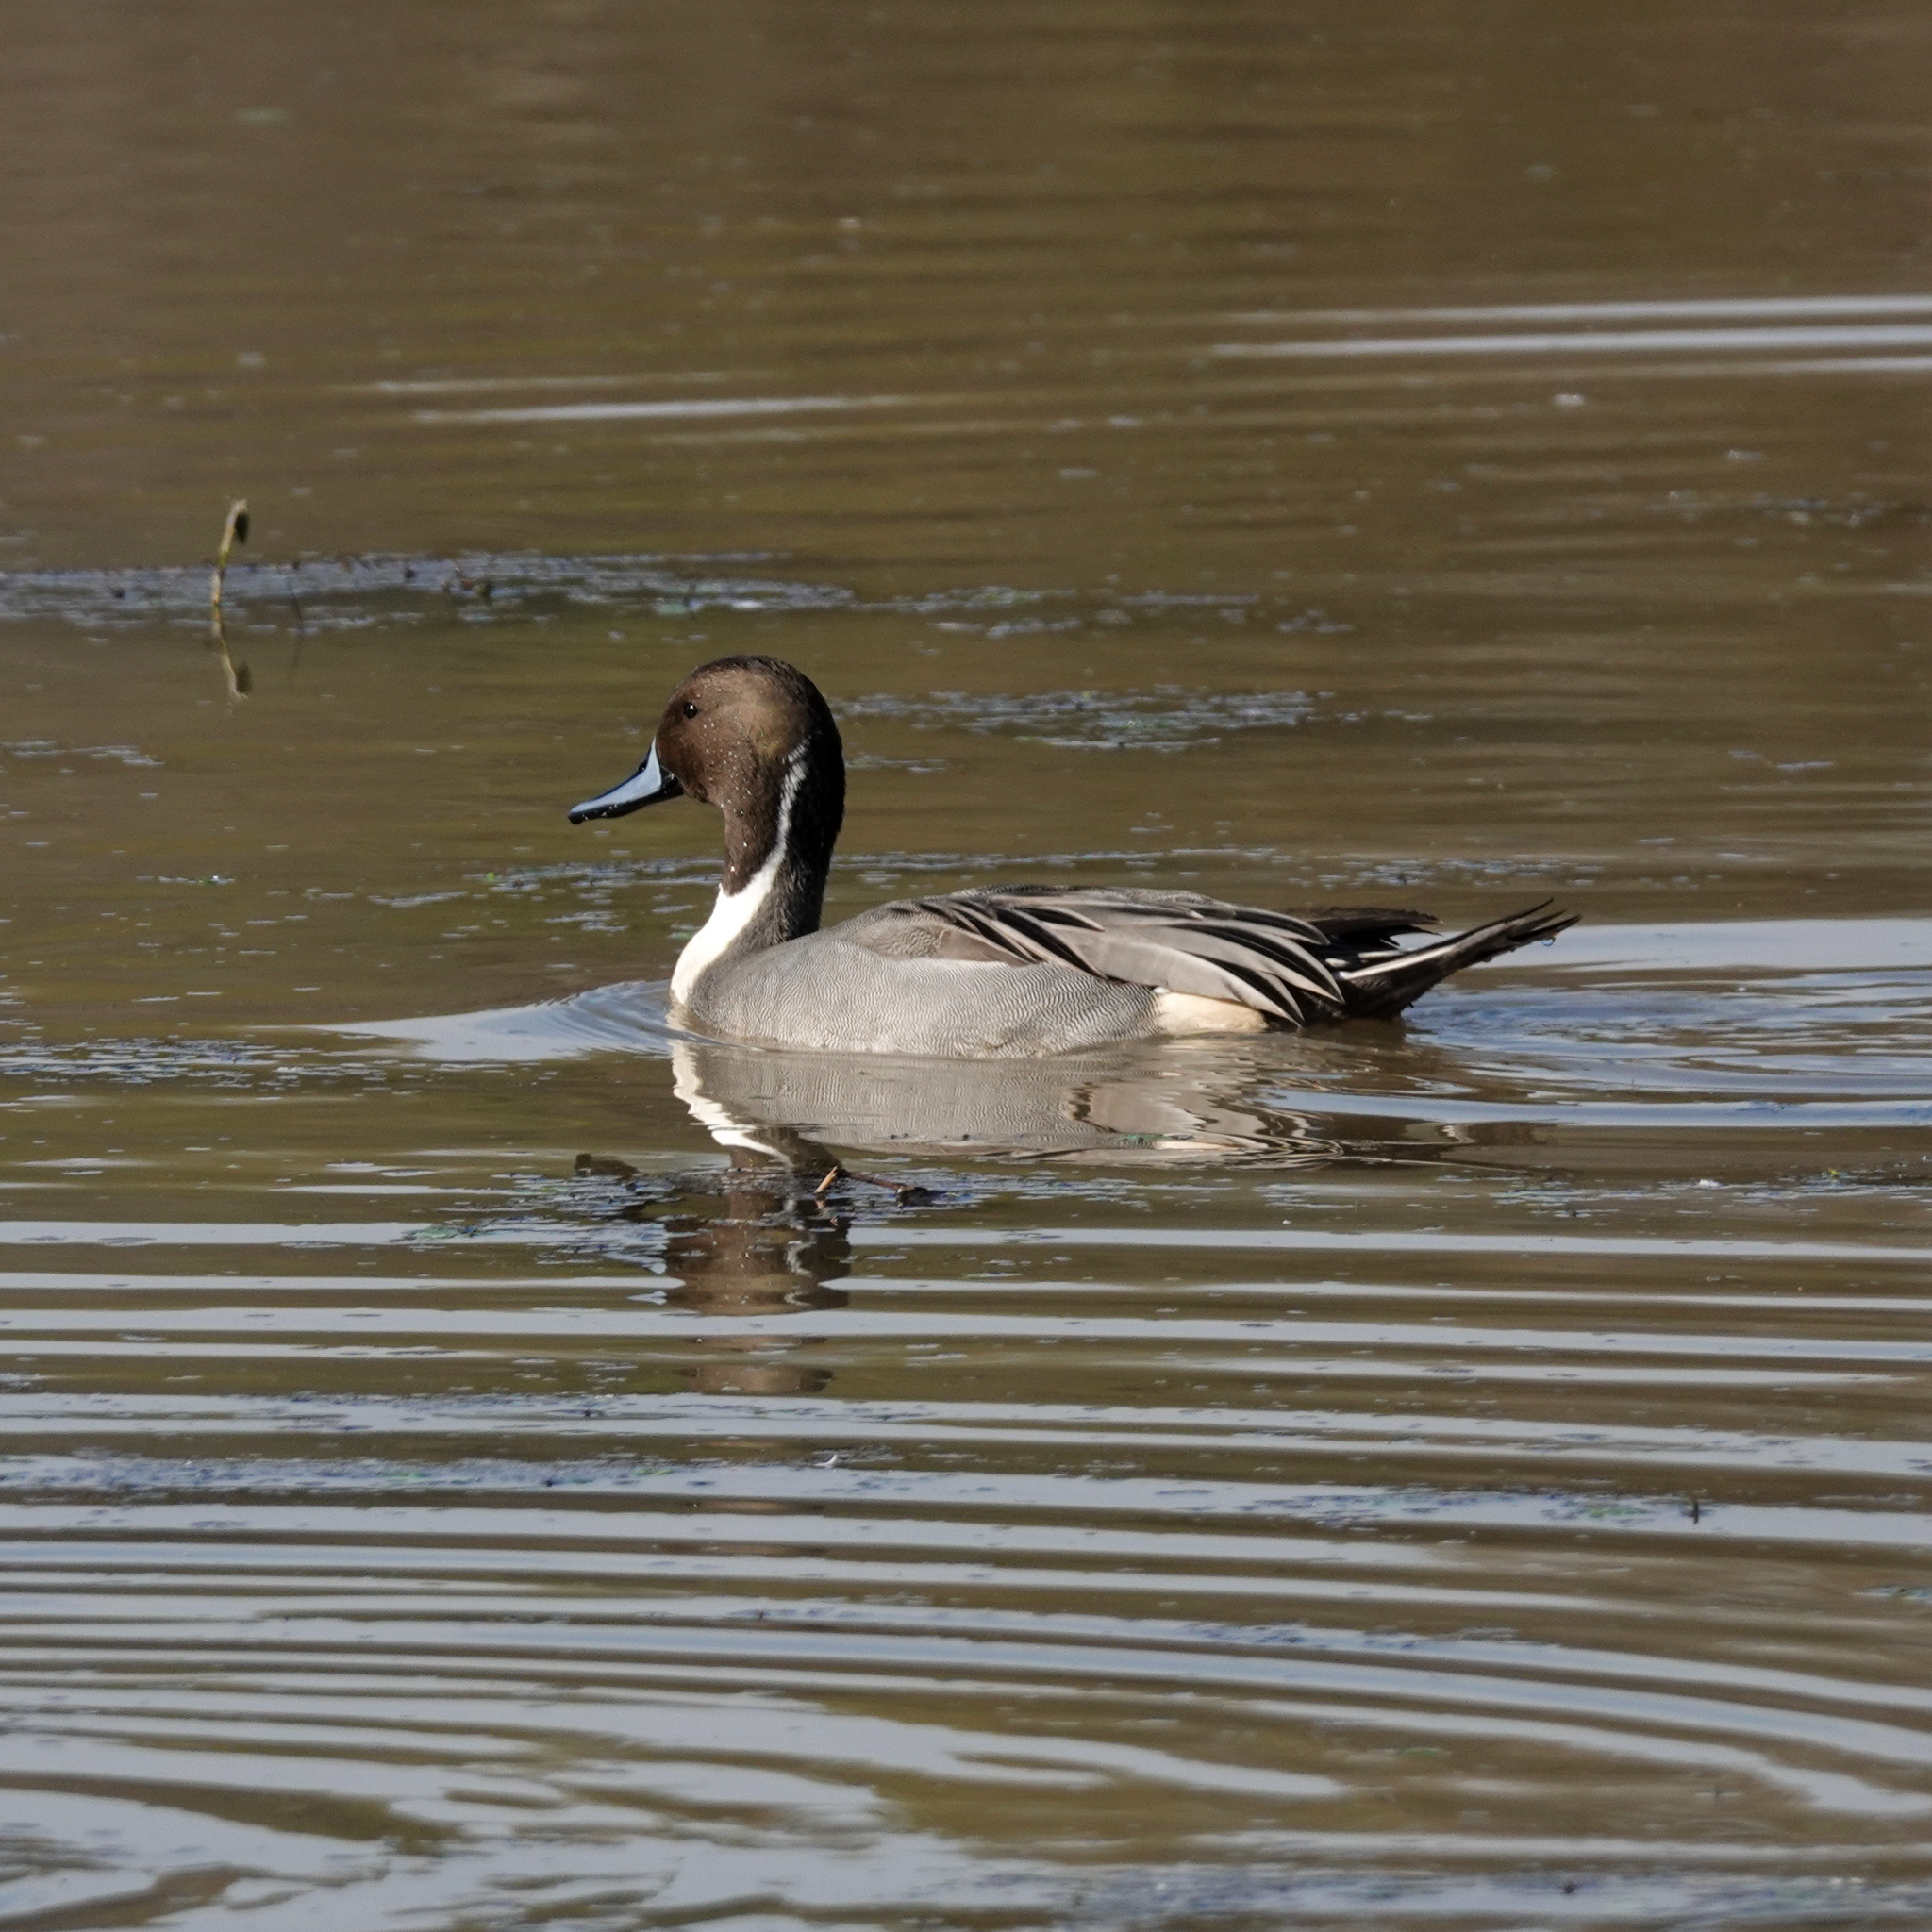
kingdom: Animalia
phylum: Chordata
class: Aves
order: Anseriformes
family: Anatidae
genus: Anas
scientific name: Anas acuta
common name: Northern pintail
